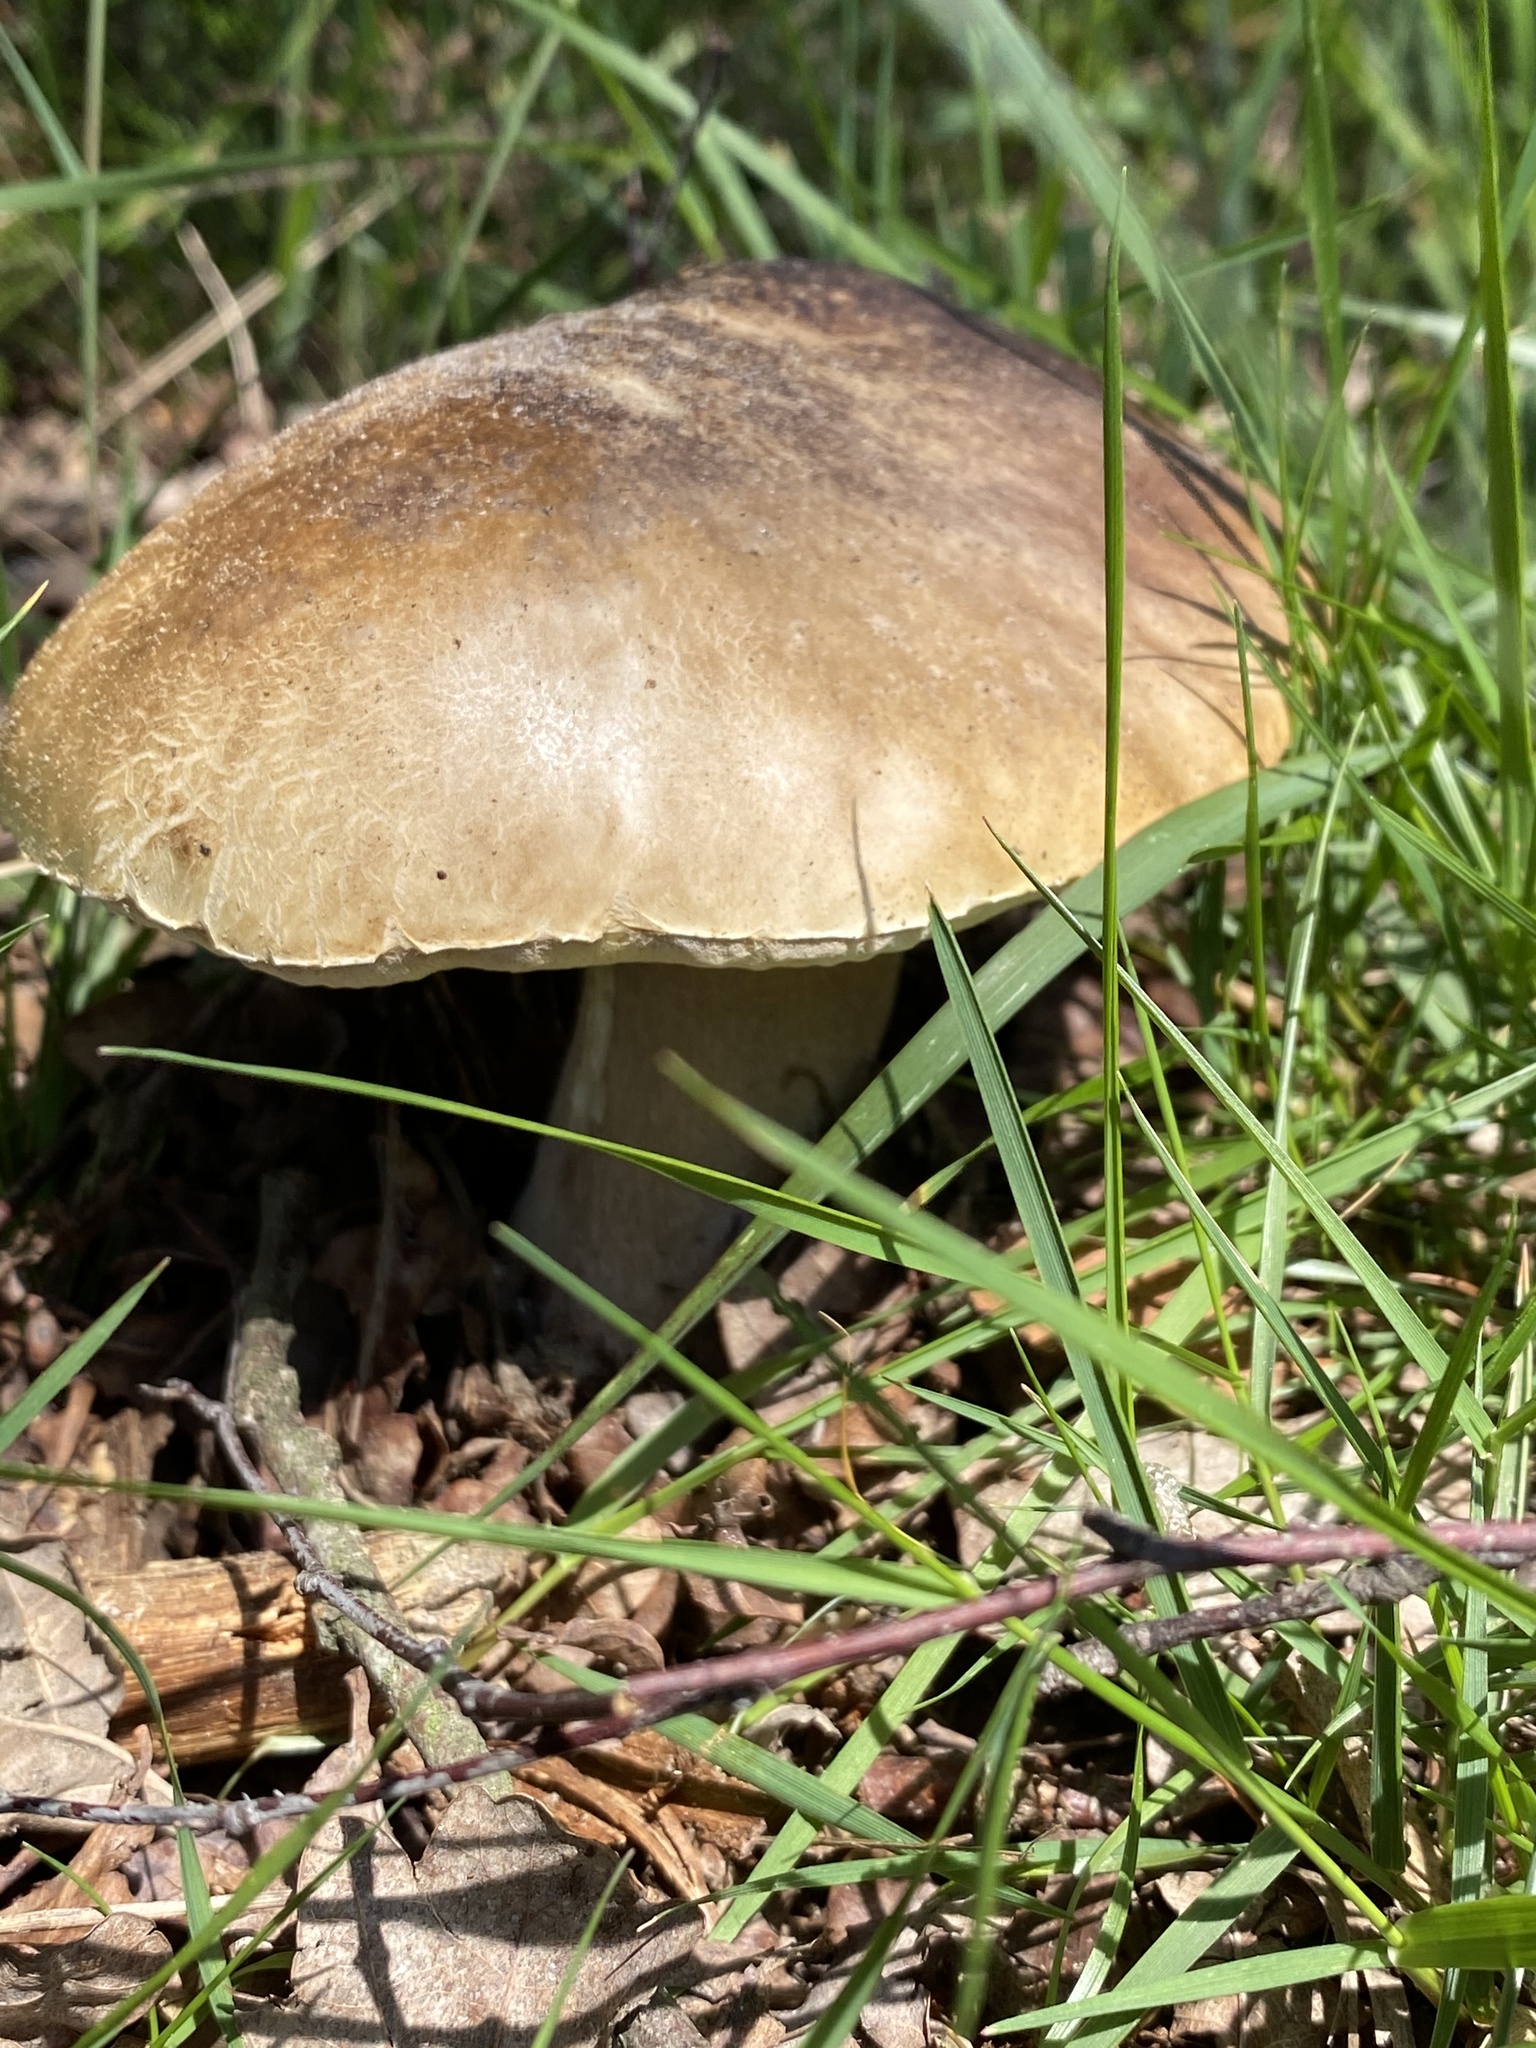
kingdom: Fungi
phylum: Basidiomycota
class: Agaricomycetes
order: Boletales
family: Boletaceae
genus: Boletus
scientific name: Boletus reticulatus
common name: Summer bolete
